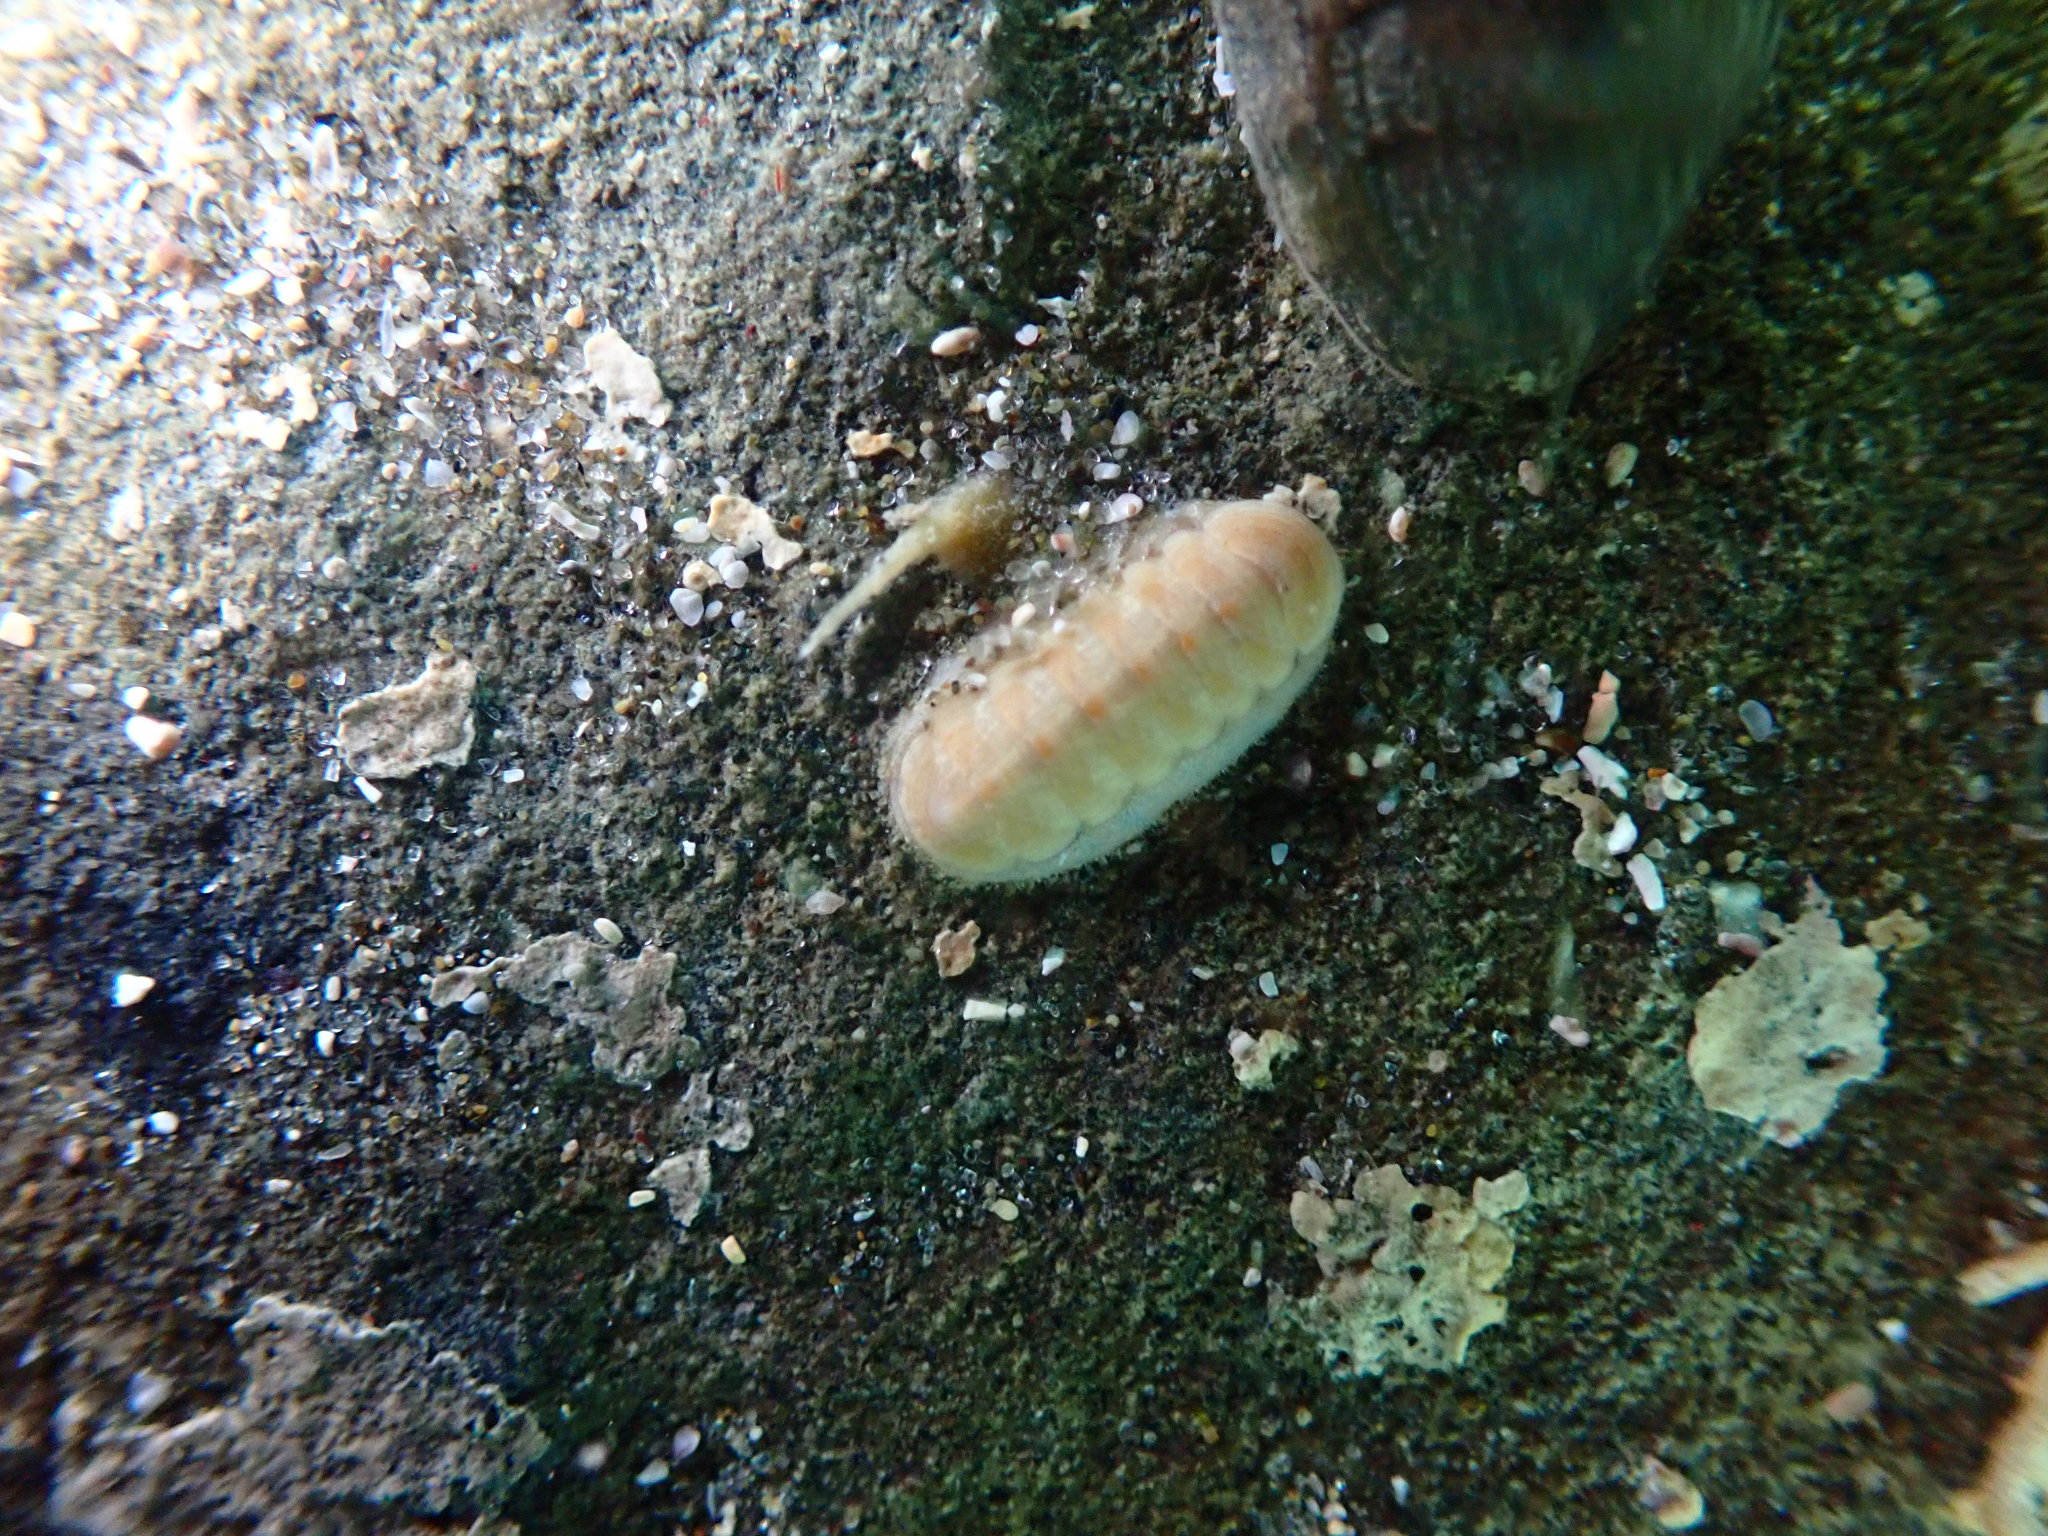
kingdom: Animalia
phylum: Mollusca
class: Polyplacophora
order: Lepidopleurida
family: Leptochitonidae
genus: Leptochiton
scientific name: Leptochiton inquinatus
